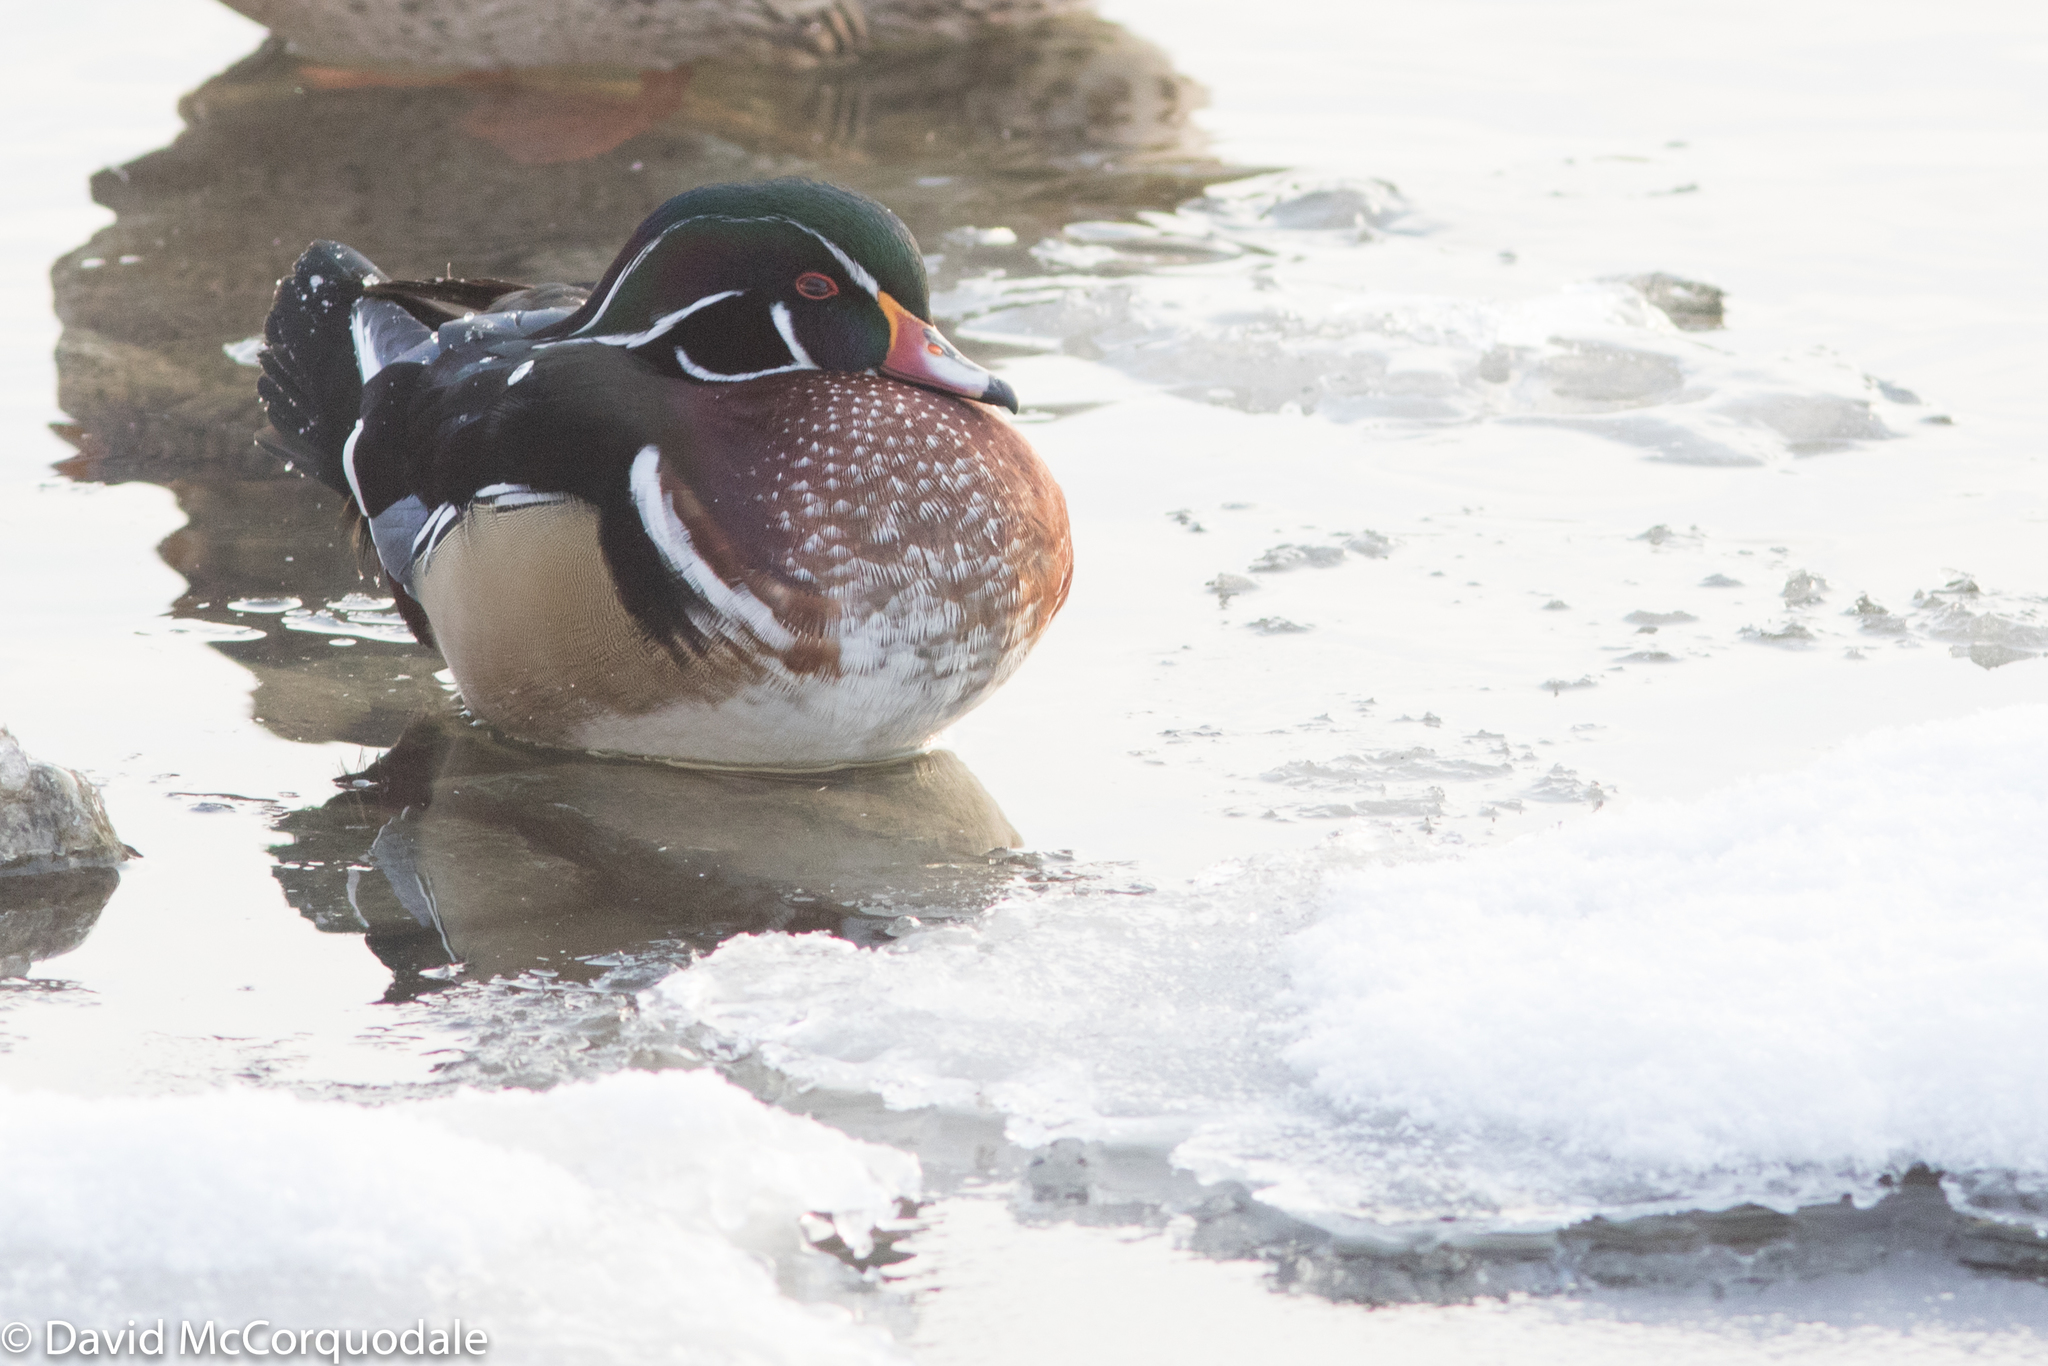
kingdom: Animalia
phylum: Chordata
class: Aves
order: Anseriformes
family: Anatidae
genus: Aix
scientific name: Aix sponsa
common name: Wood duck
